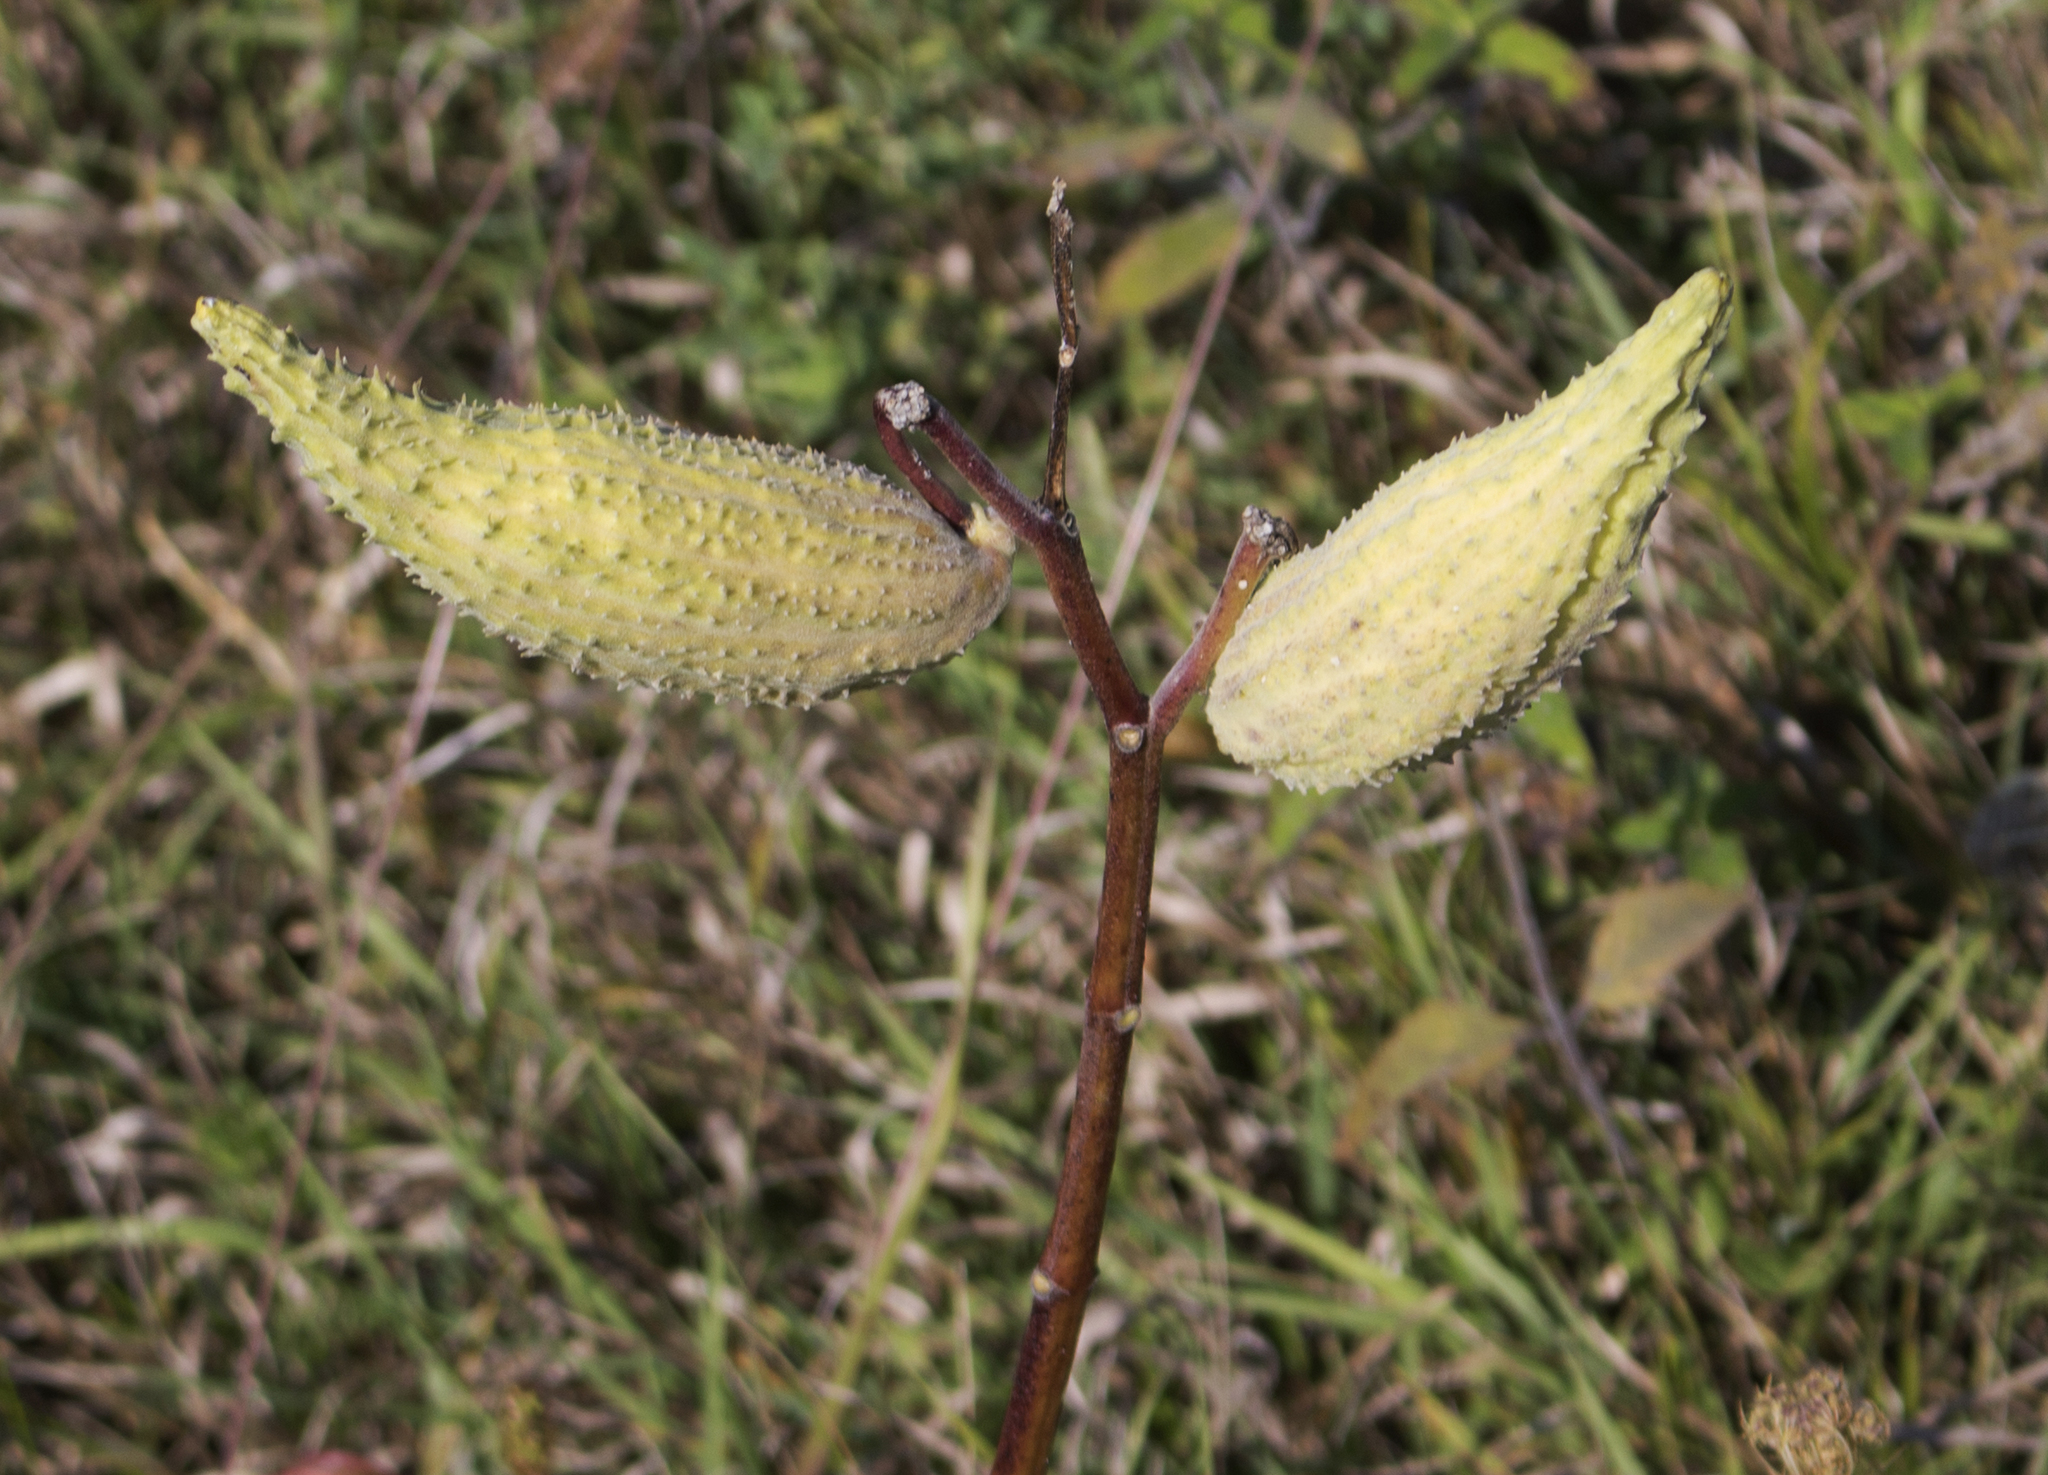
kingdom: Plantae
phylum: Tracheophyta
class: Magnoliopsida
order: Gentianales
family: Apocynaceae
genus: Asclepias
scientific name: Asclepias syriaca
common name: Common milkweed
